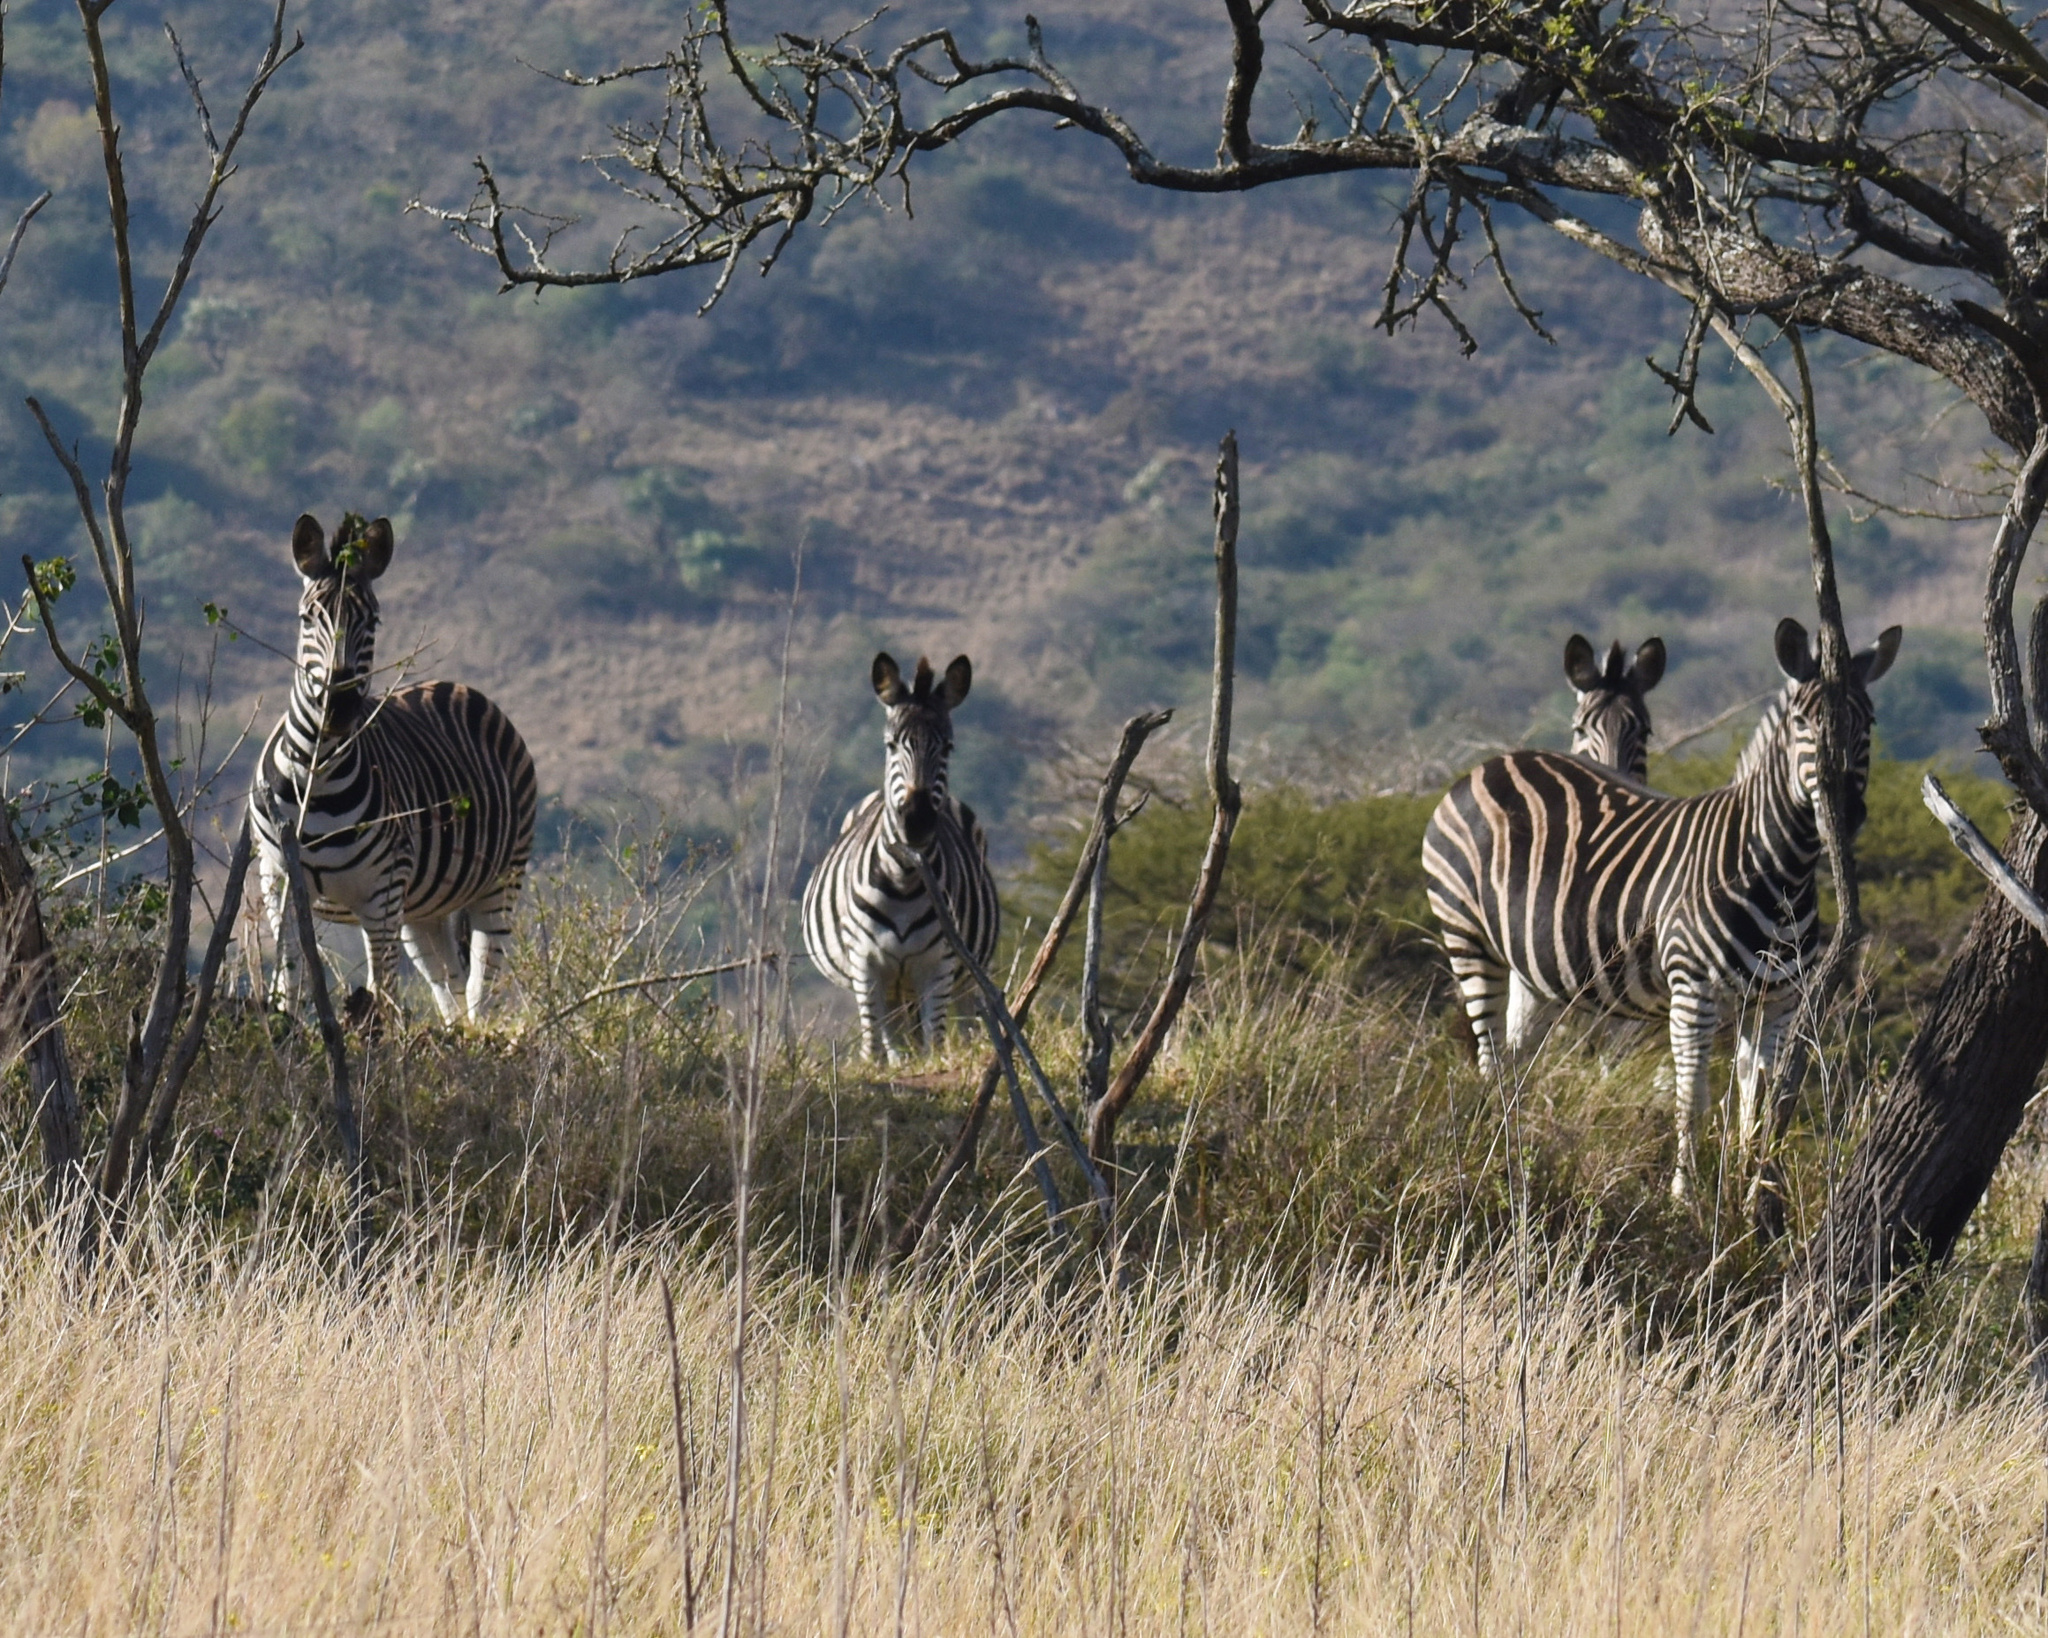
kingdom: Animalia
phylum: Chordata
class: Mammalia
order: Perissodactyla
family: Equidae
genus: Equus
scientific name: Equus quagga
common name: Plains zebra
